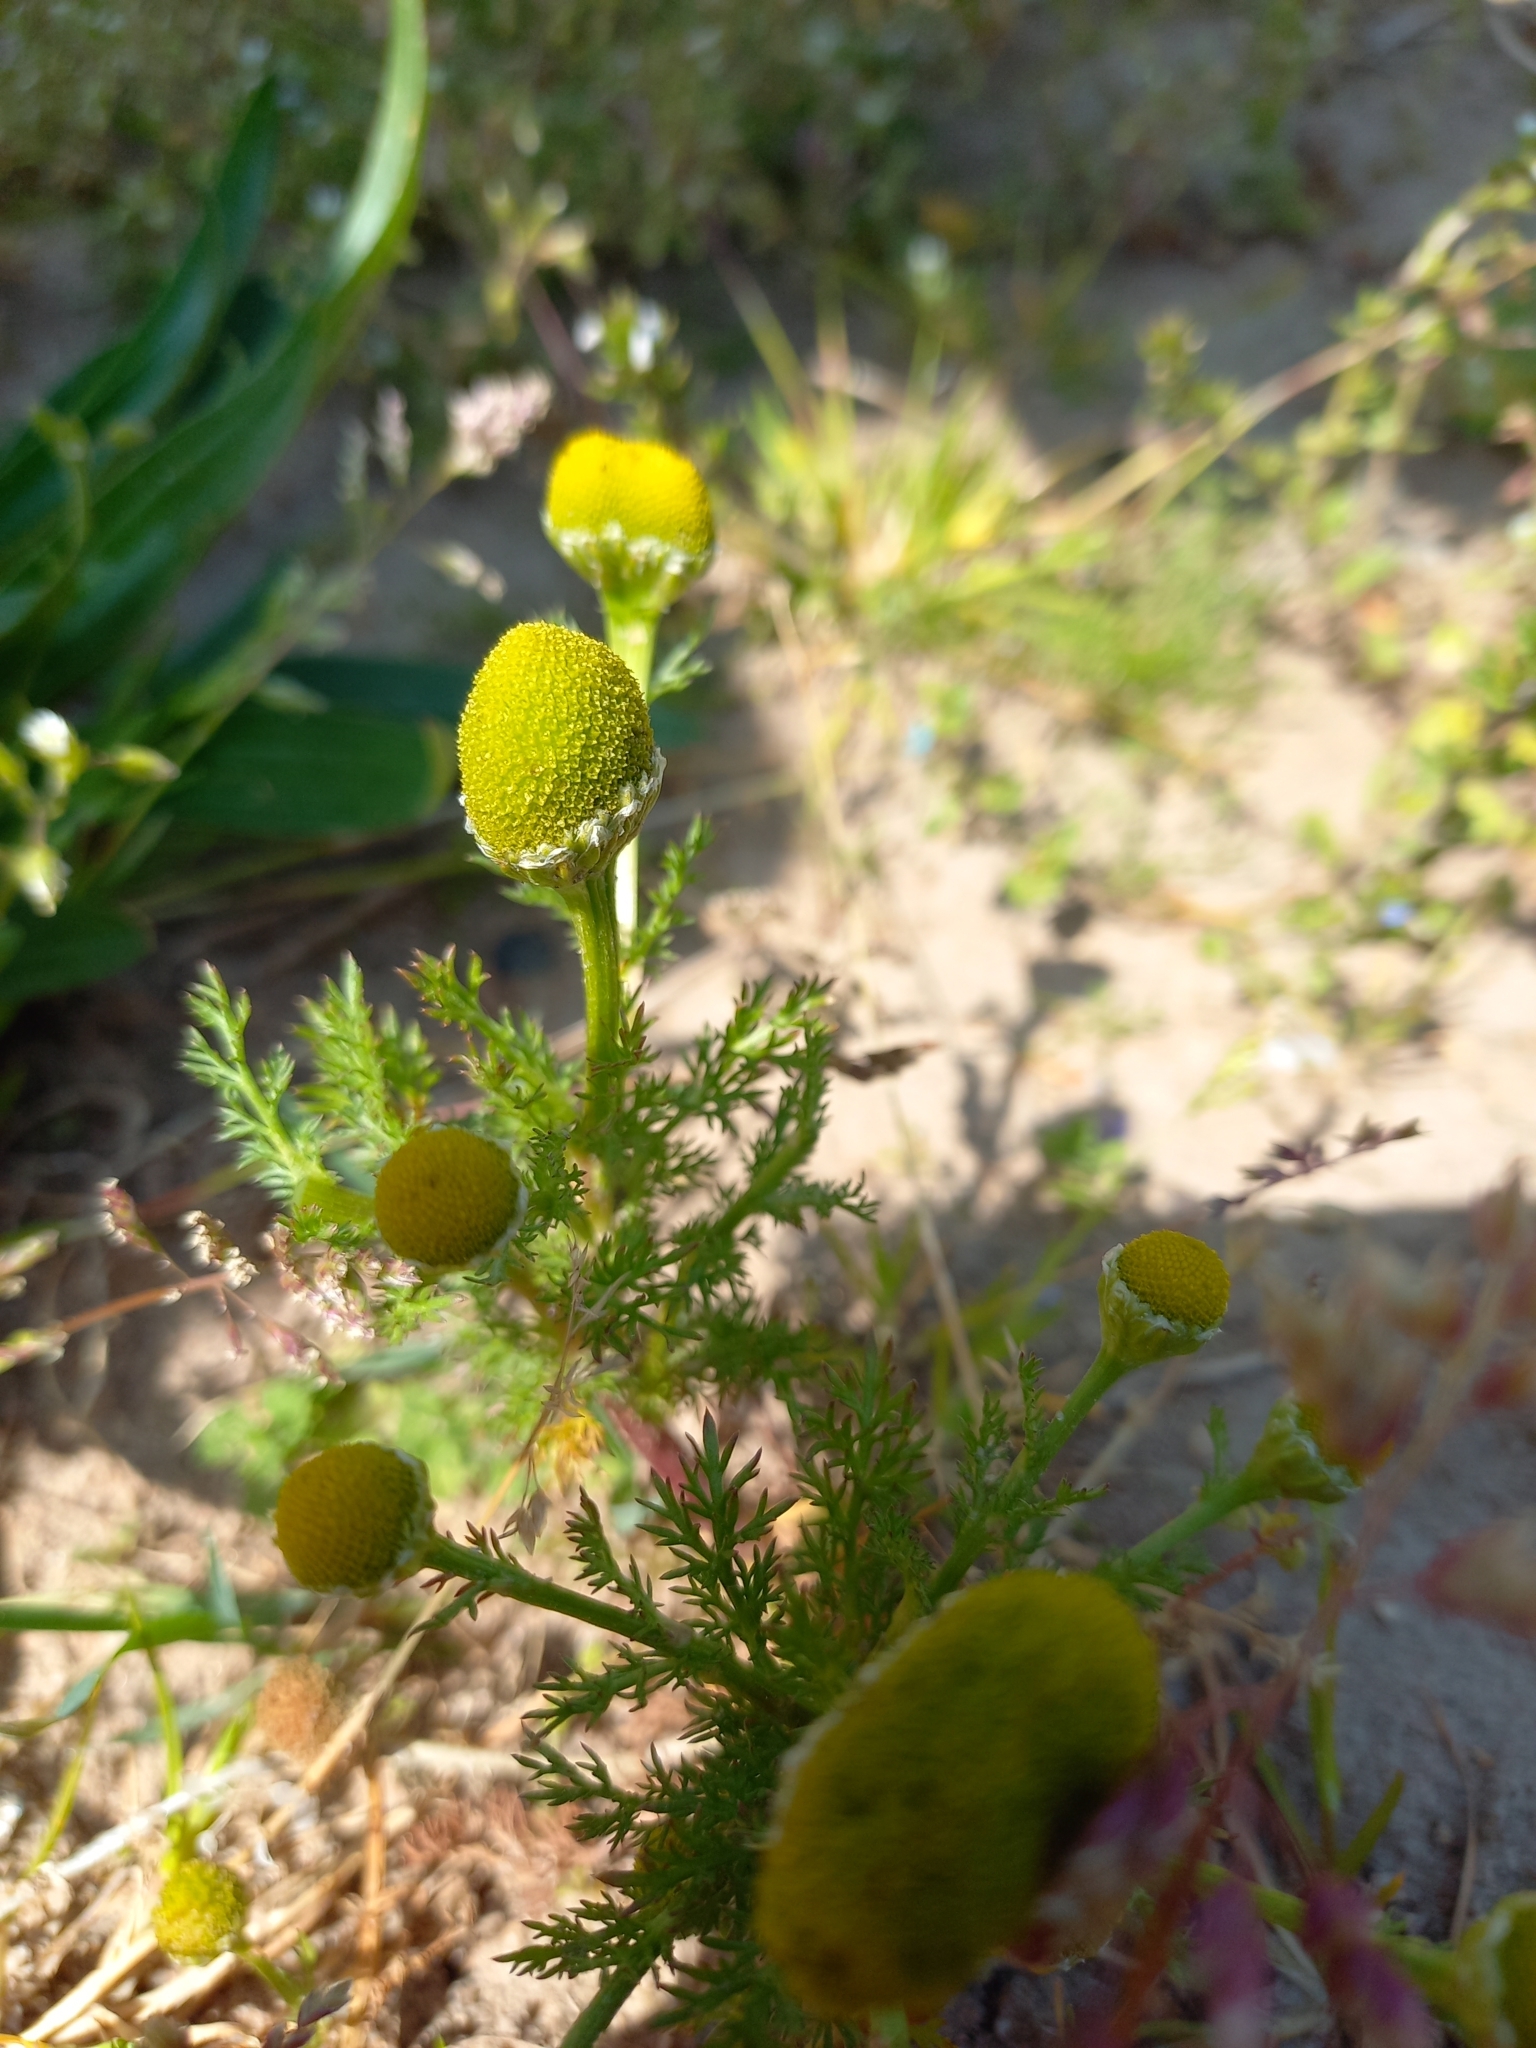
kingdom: Plantae
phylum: Tracheophyta
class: Magnoliopsida
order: Asterales
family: Asteraceae
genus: Matricaria
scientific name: Matricaria discoidea
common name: Disc mayweed
